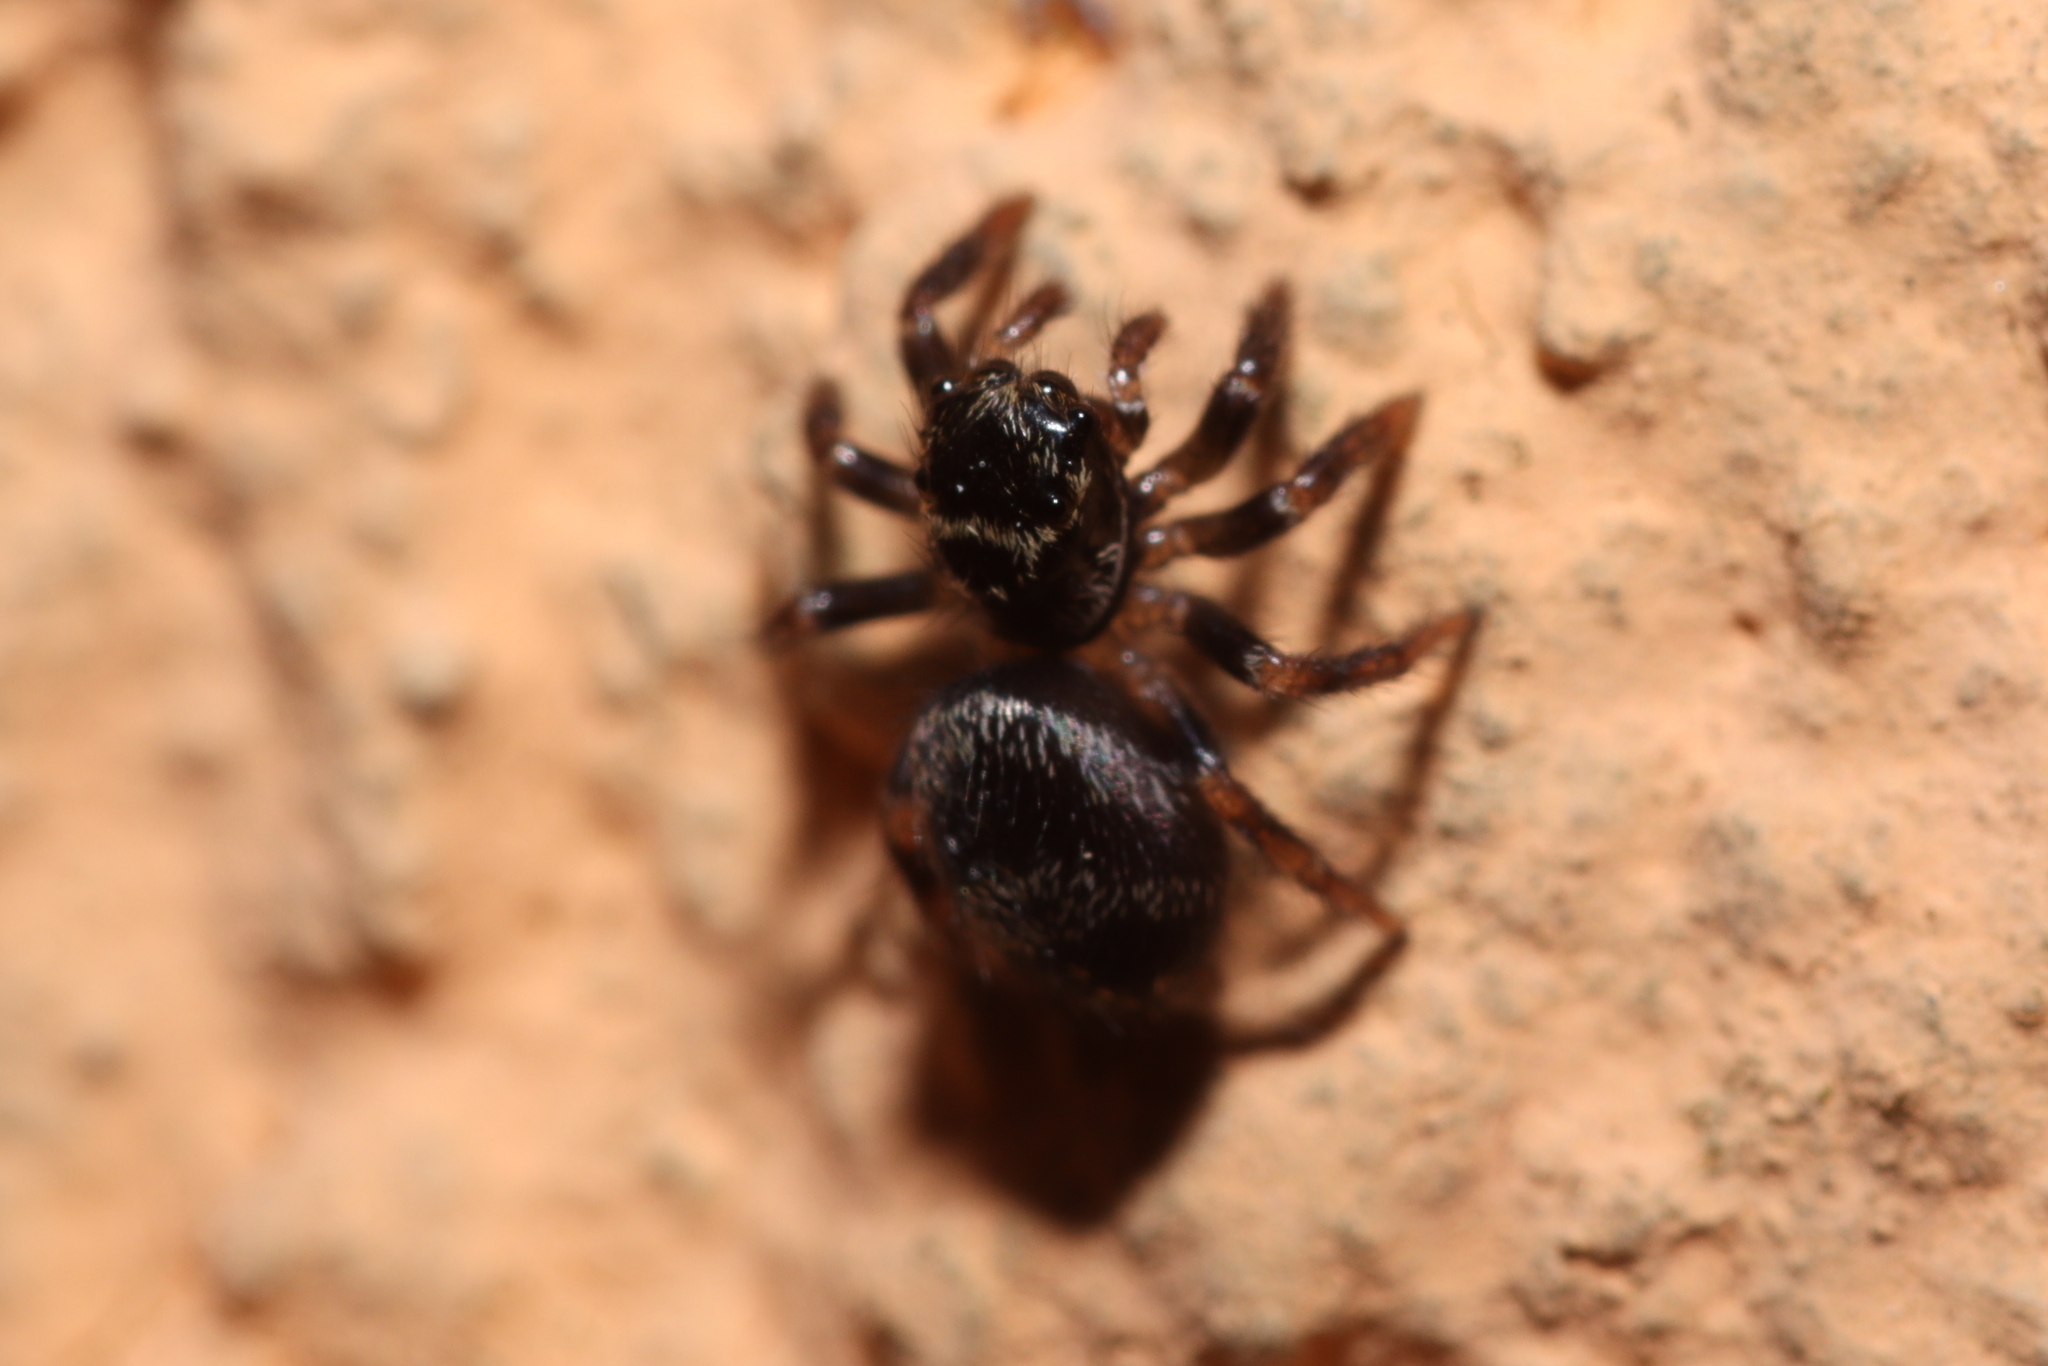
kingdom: Animalia
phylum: Arthropoda
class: Arachnida
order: Araneae
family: Salticidae
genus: Corythalia
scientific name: Corythalia conferta
